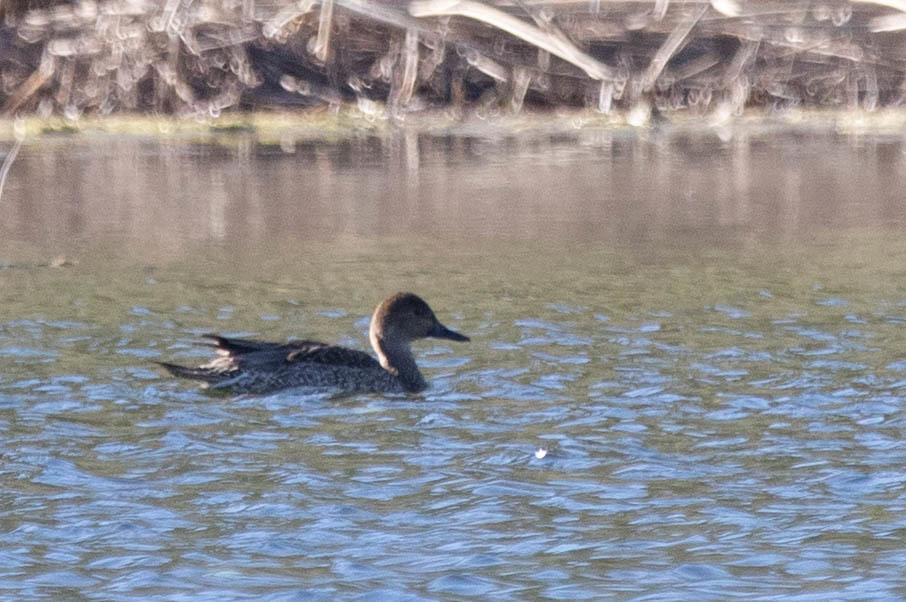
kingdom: Animalia
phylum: Chordata
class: Aves
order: Anseriformes
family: Anatidae
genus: Anas
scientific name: Anas acuta
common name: Northern pintail
